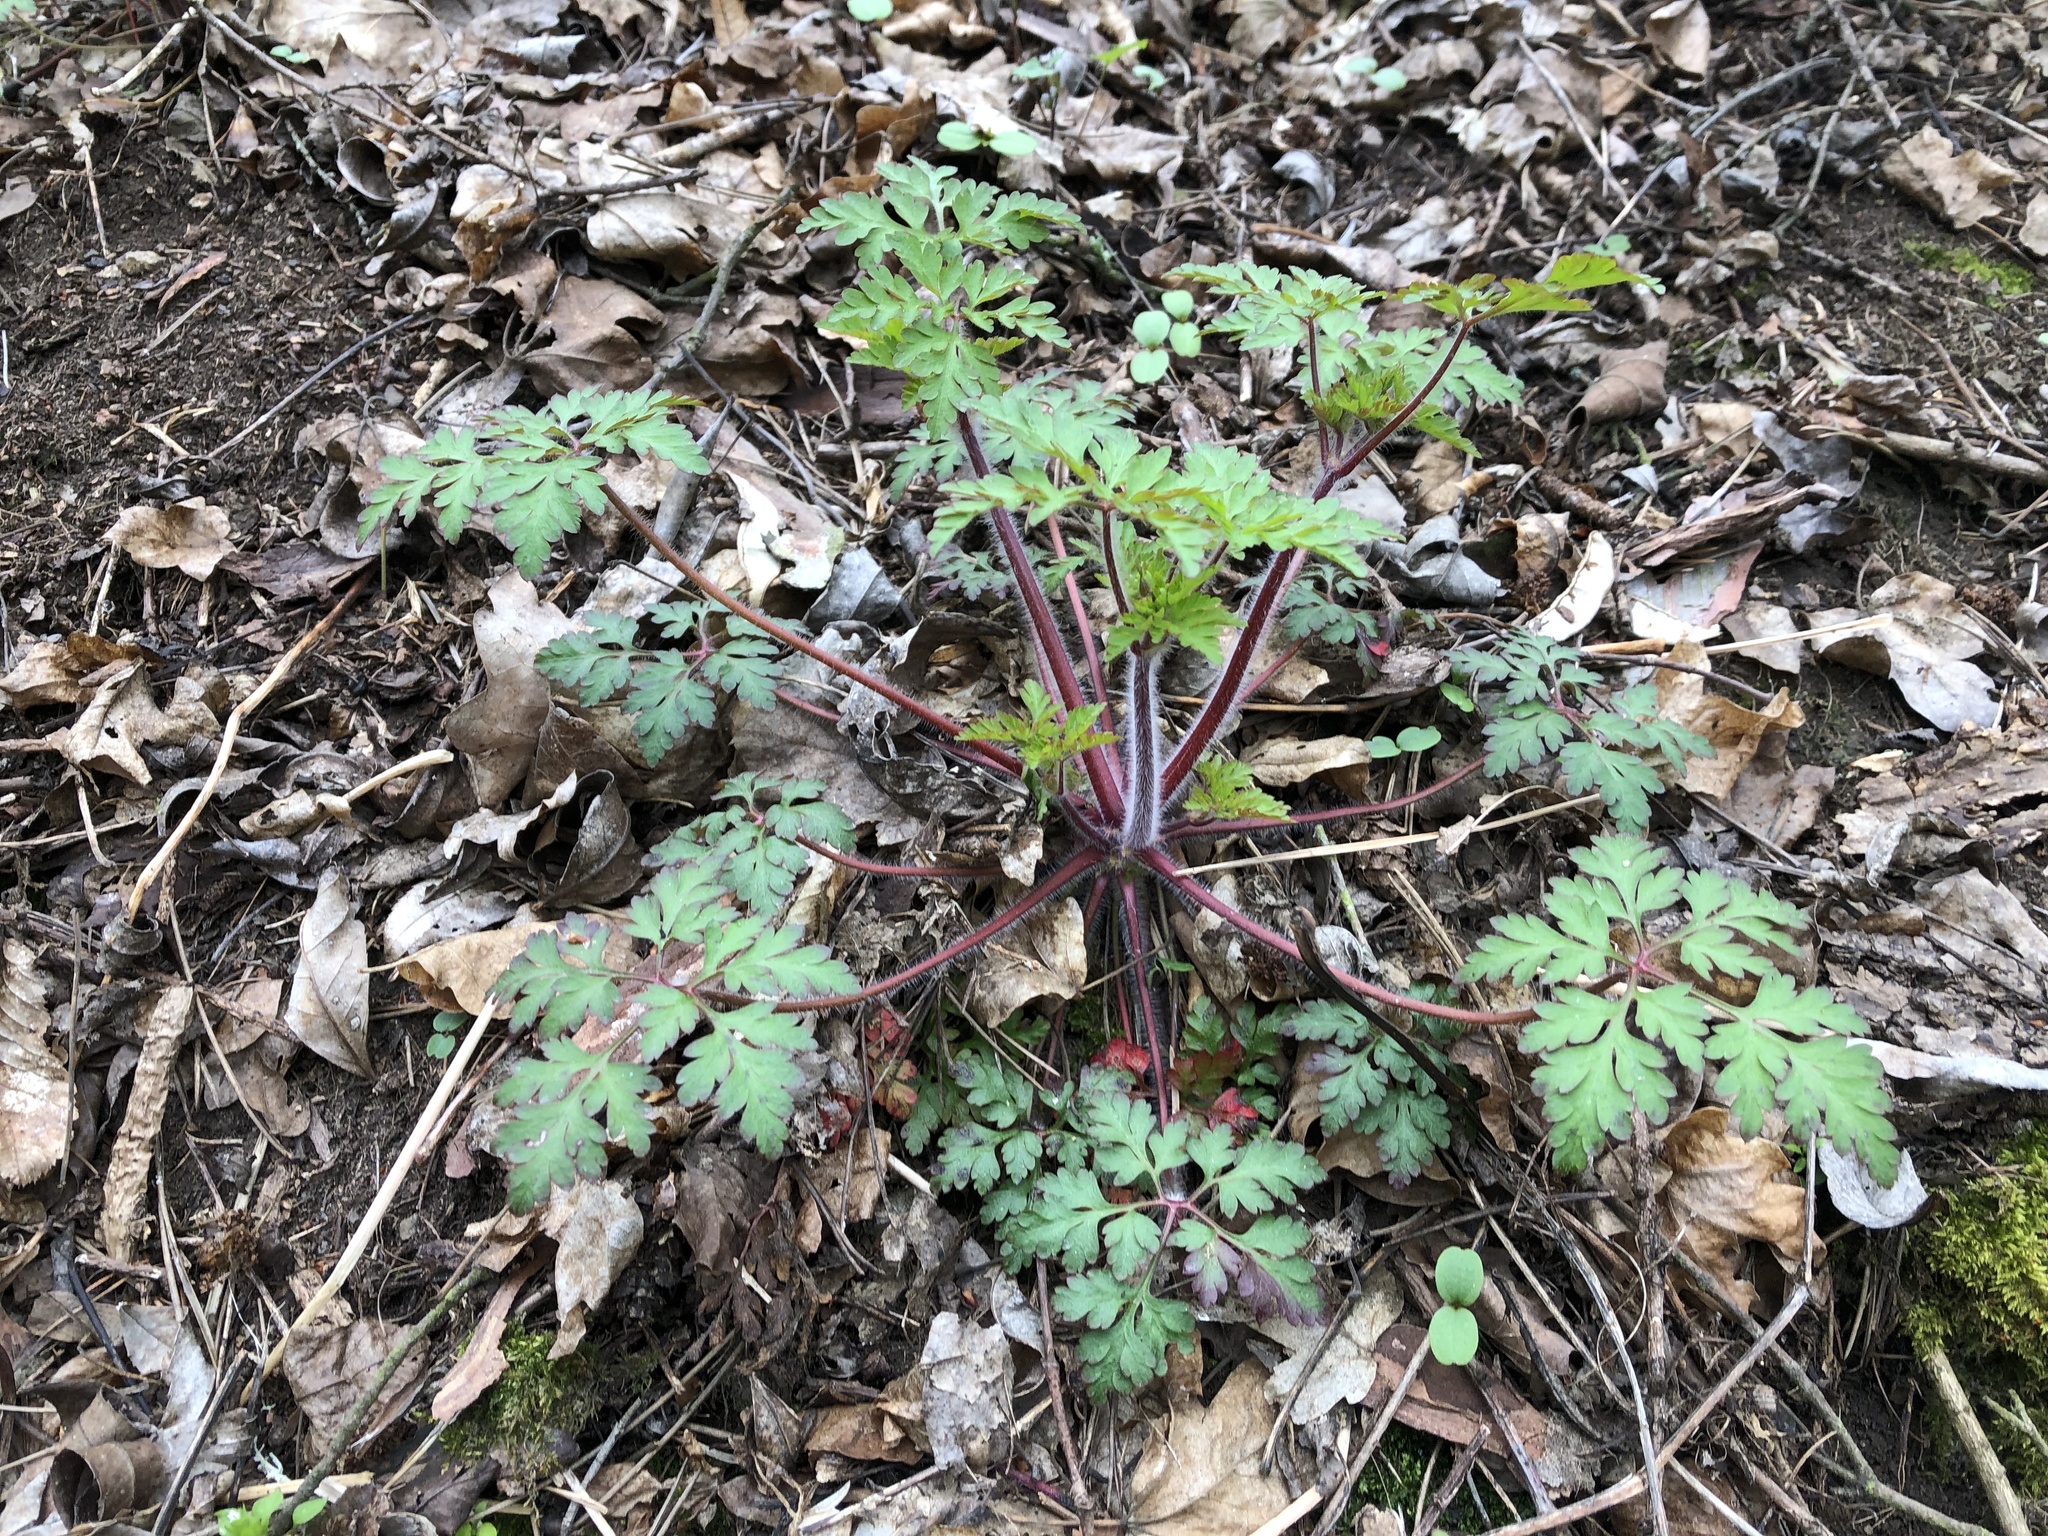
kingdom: Plantae
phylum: Tracheophyta
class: Magnoliopsida
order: Geraniales
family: Geraniaceae
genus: Geranium
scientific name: Geranium robertianum
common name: Herb-robert
